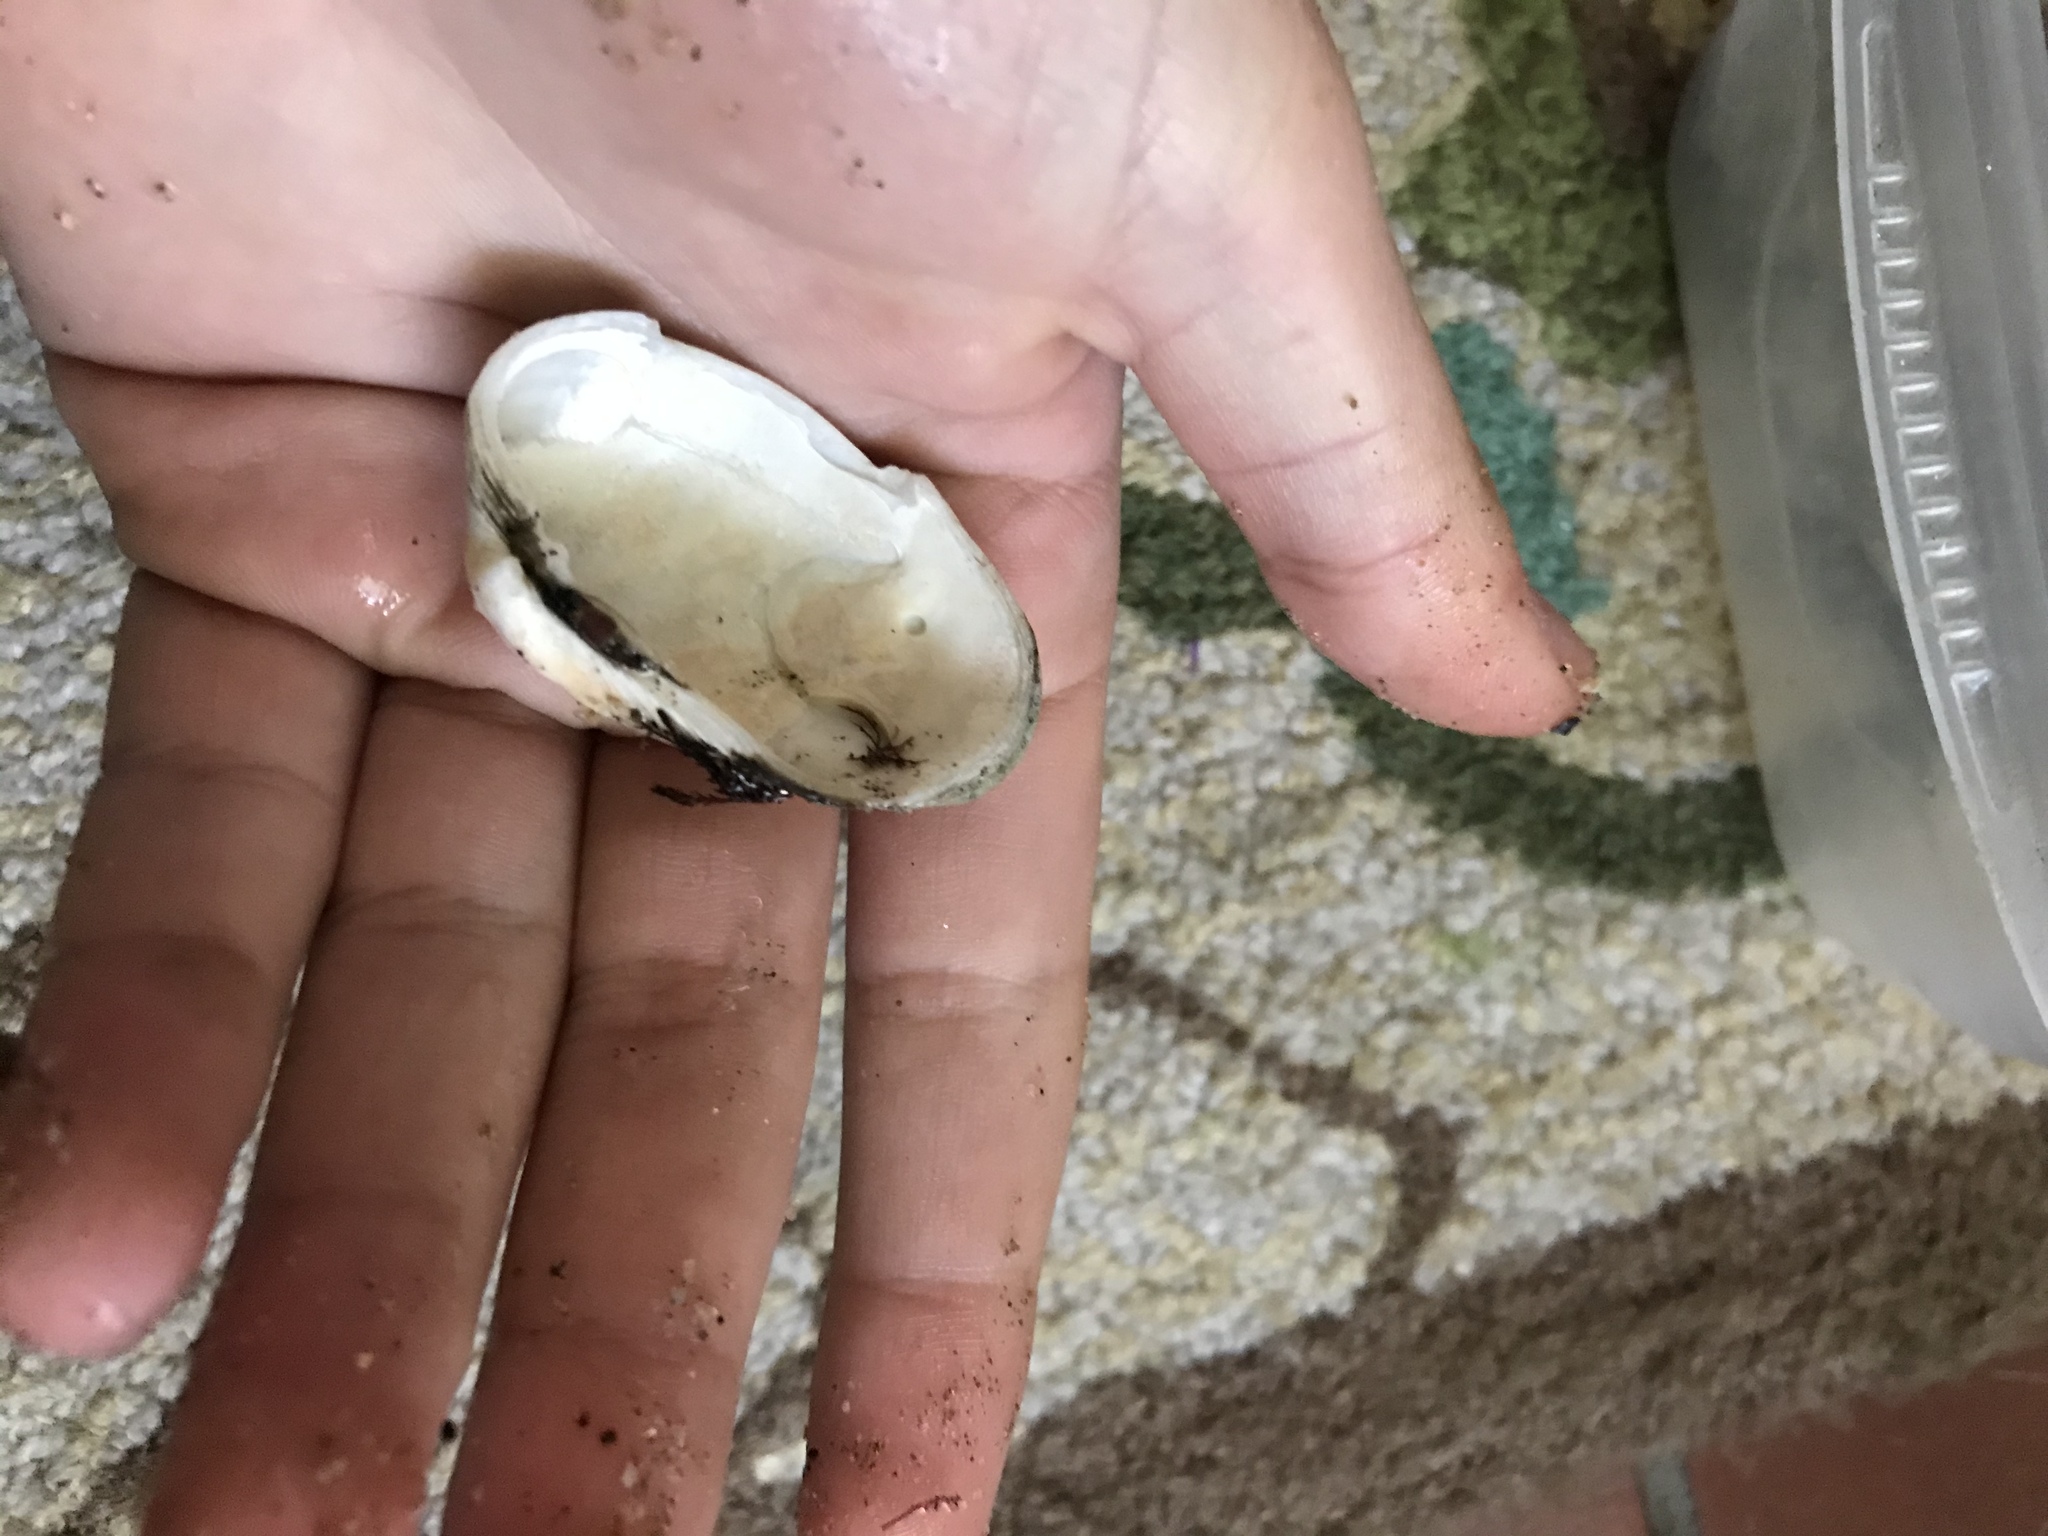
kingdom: Animalia
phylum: Mollusca
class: Bivalvia
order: Venerida
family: Veneridae
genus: Petricola
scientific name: Petricola carditoides
